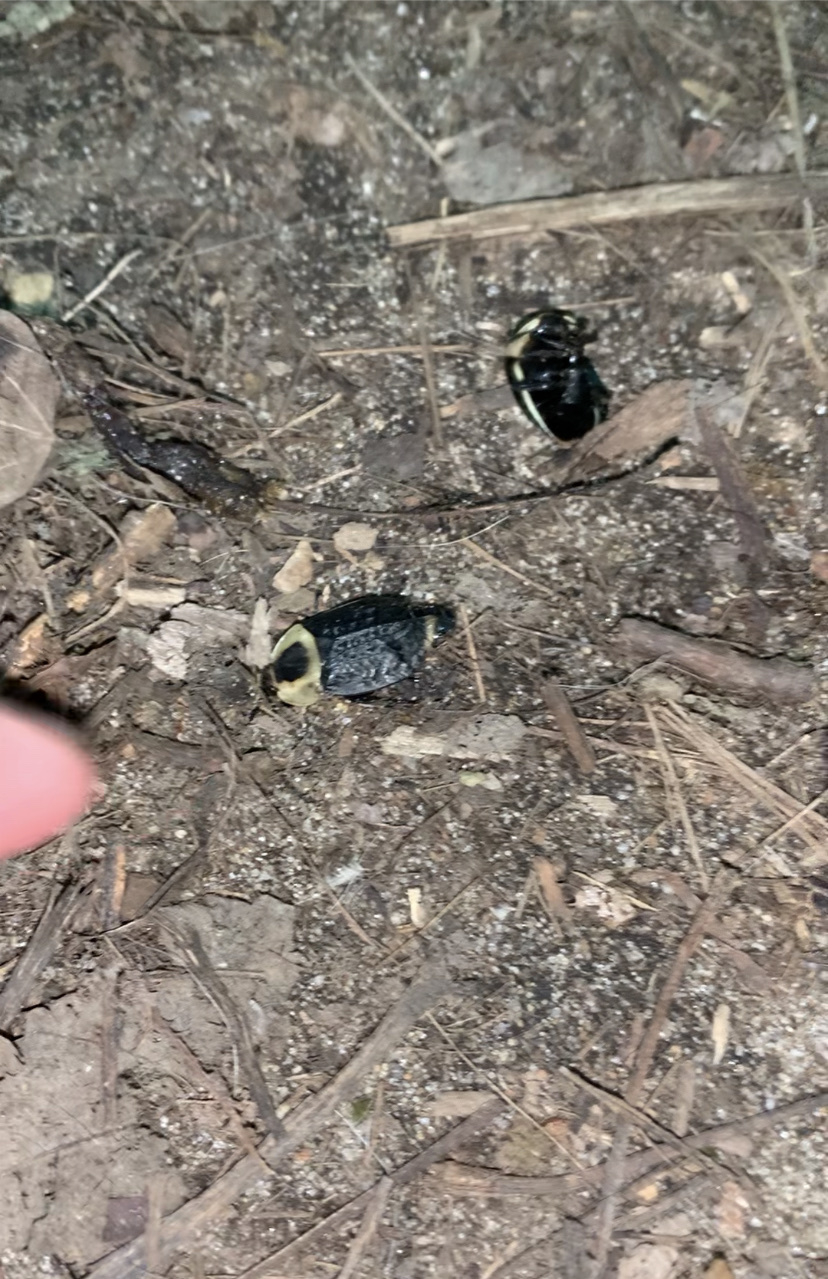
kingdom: Animalia
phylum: Arthropoda
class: Insecta
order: Coleoptera
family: Staphylinidae
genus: Necrophila
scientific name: Necrophila americana
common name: American carrion beetle
